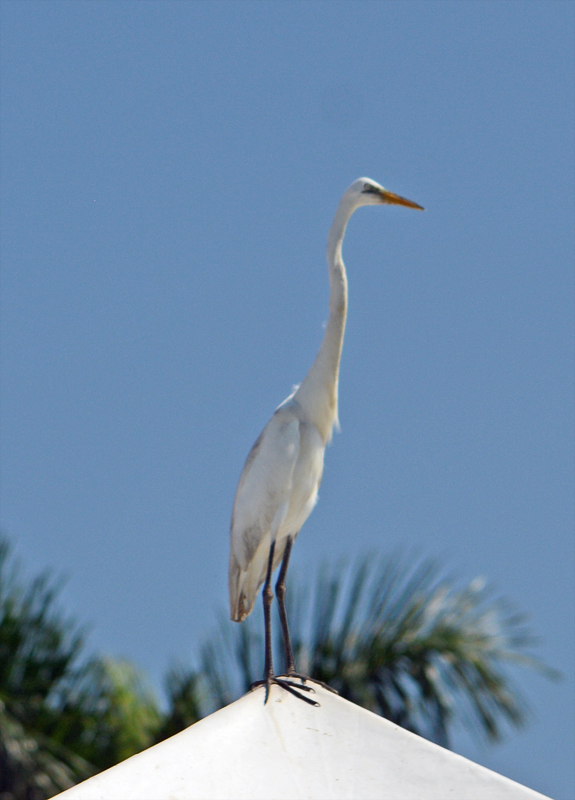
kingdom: Animalia
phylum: Chordata
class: Aves
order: Pelecaniformes
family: Ardeidae
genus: Ardea
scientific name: Ardea alba
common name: Great egret
